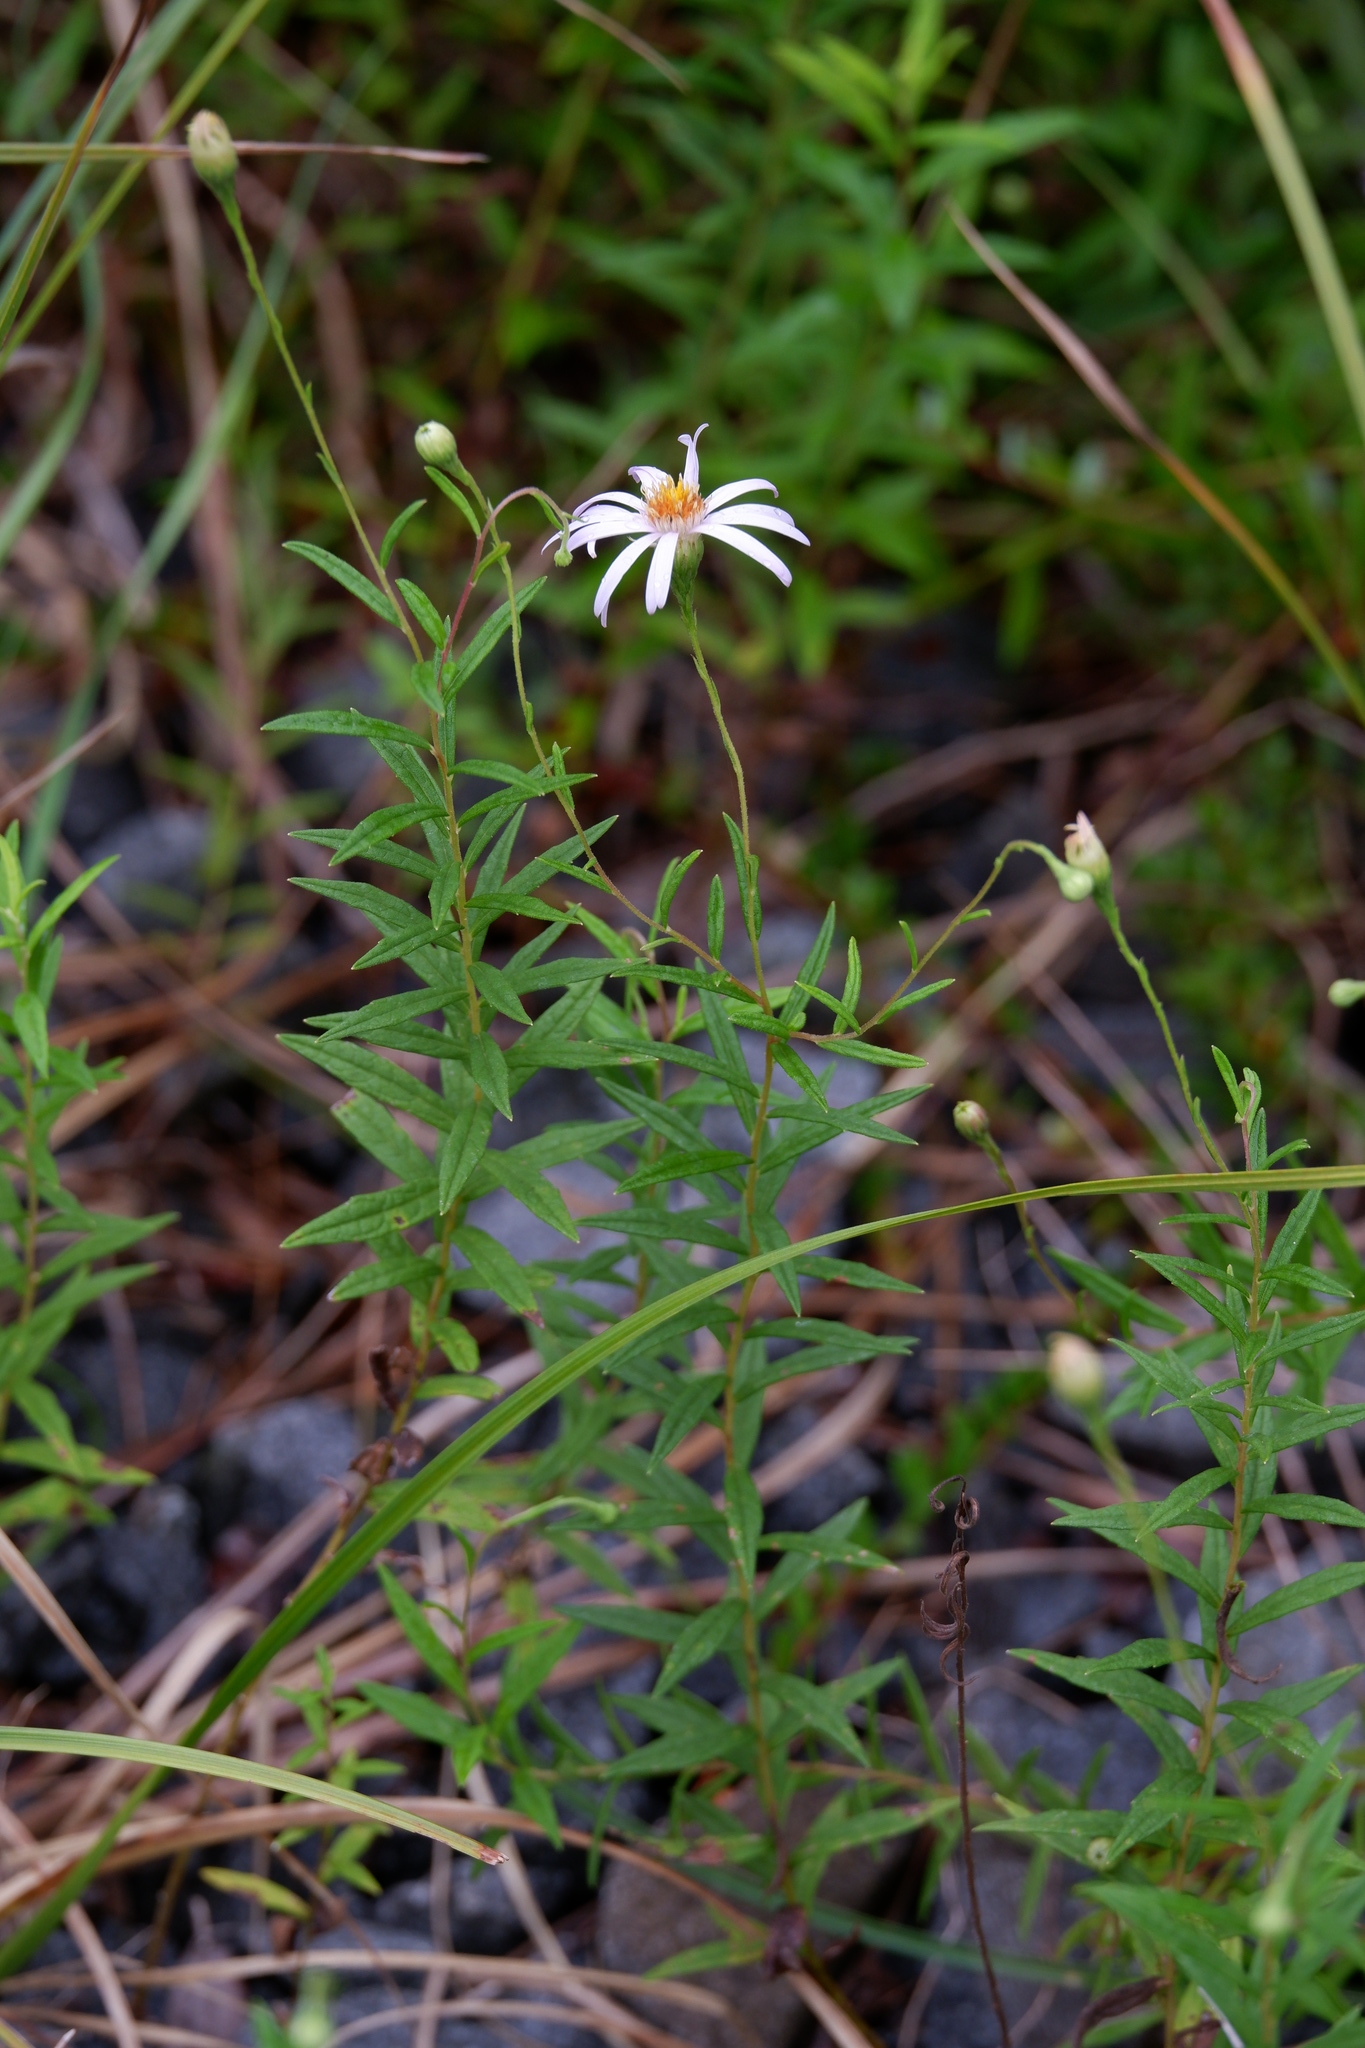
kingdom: Plantae
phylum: Tracheophyta
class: Magnoliopsida
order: Asterales
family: Asteraceae
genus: Oclemena
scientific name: Oclemena nemoralis
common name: Bog aster
